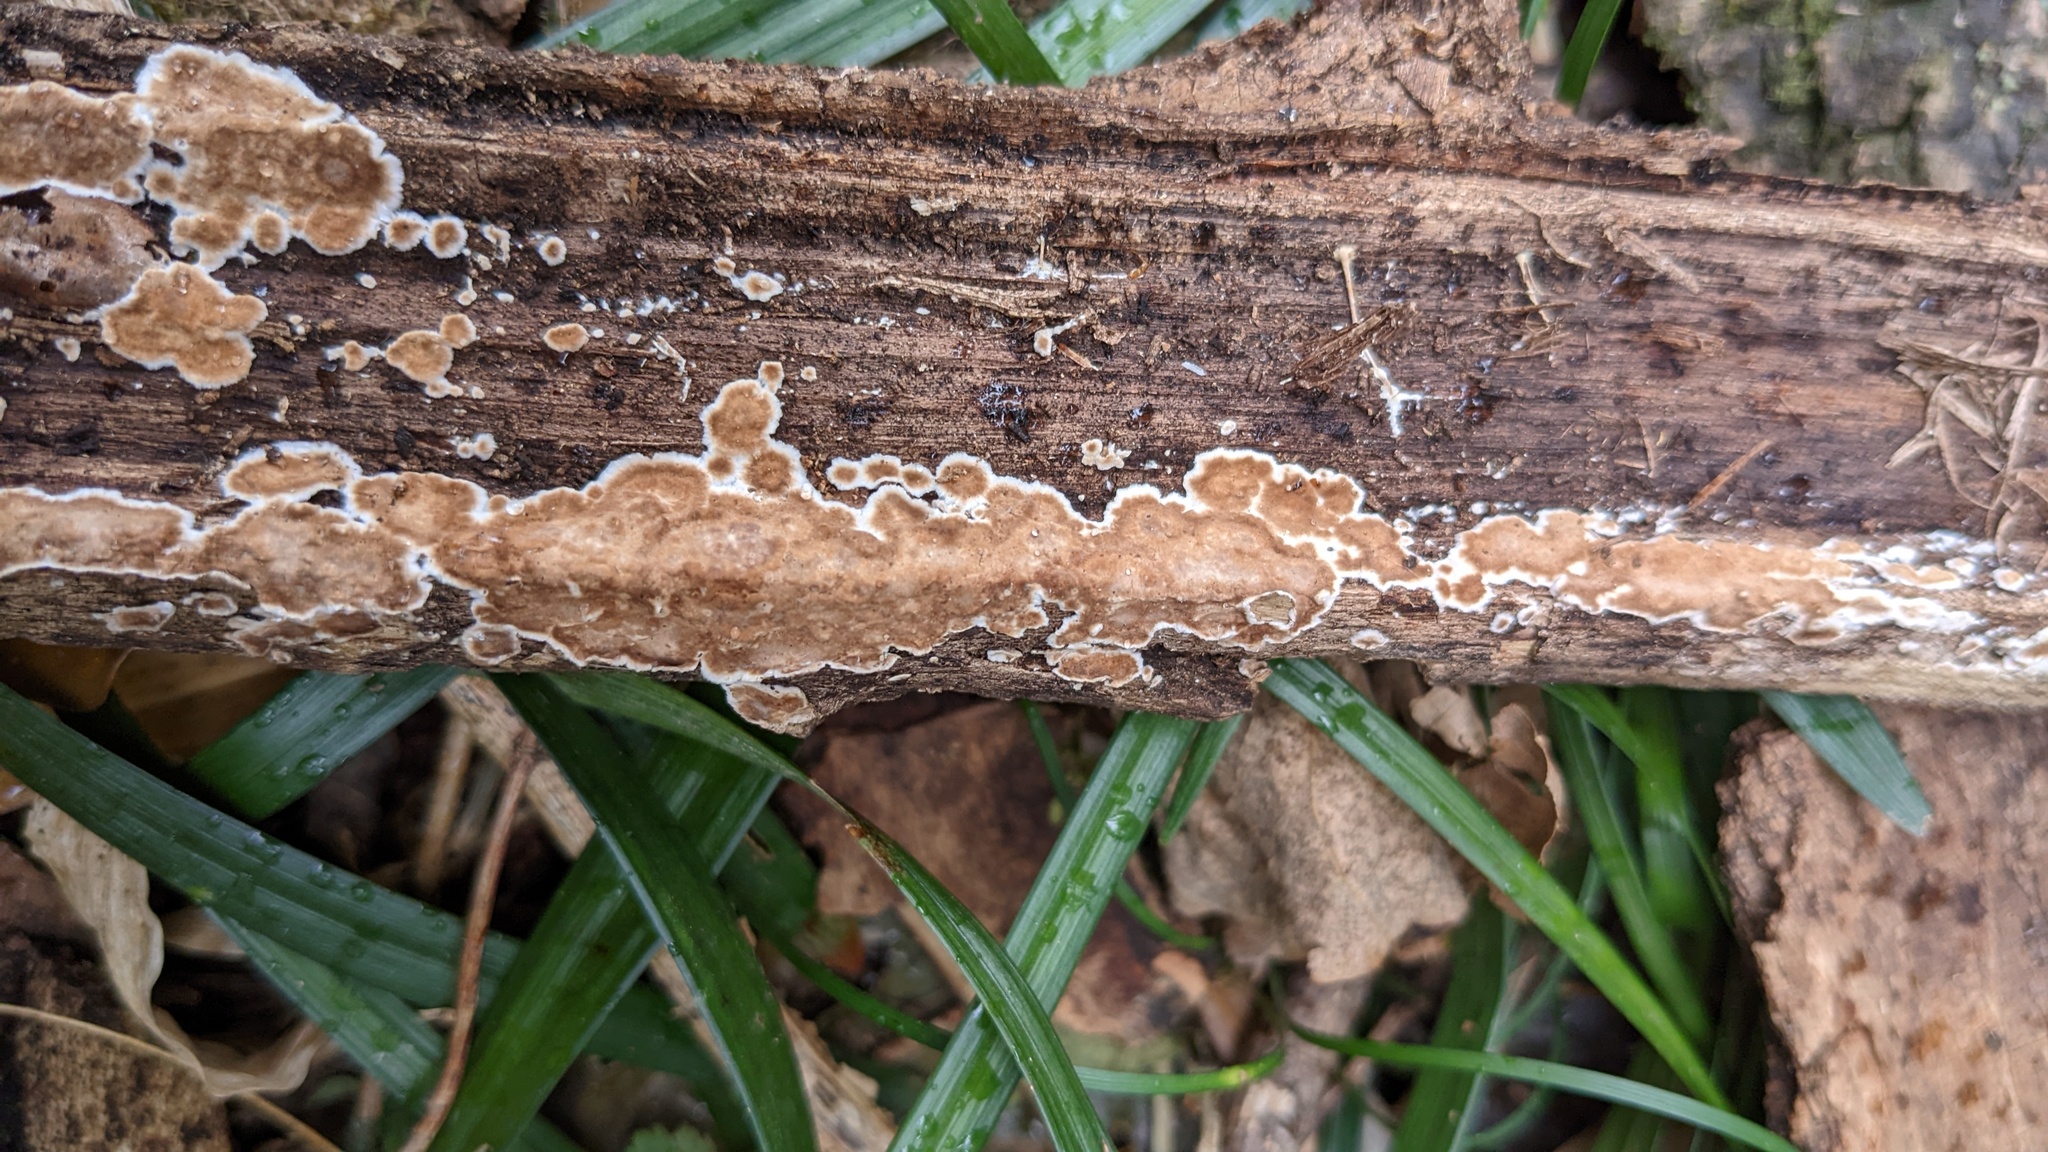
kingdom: Fungi
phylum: Basidiomycota
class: Agaricomycetes
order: Russulales
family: Peniophoraceae
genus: Peniophora
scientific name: Peniophora albobadia
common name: Giraffe spots
